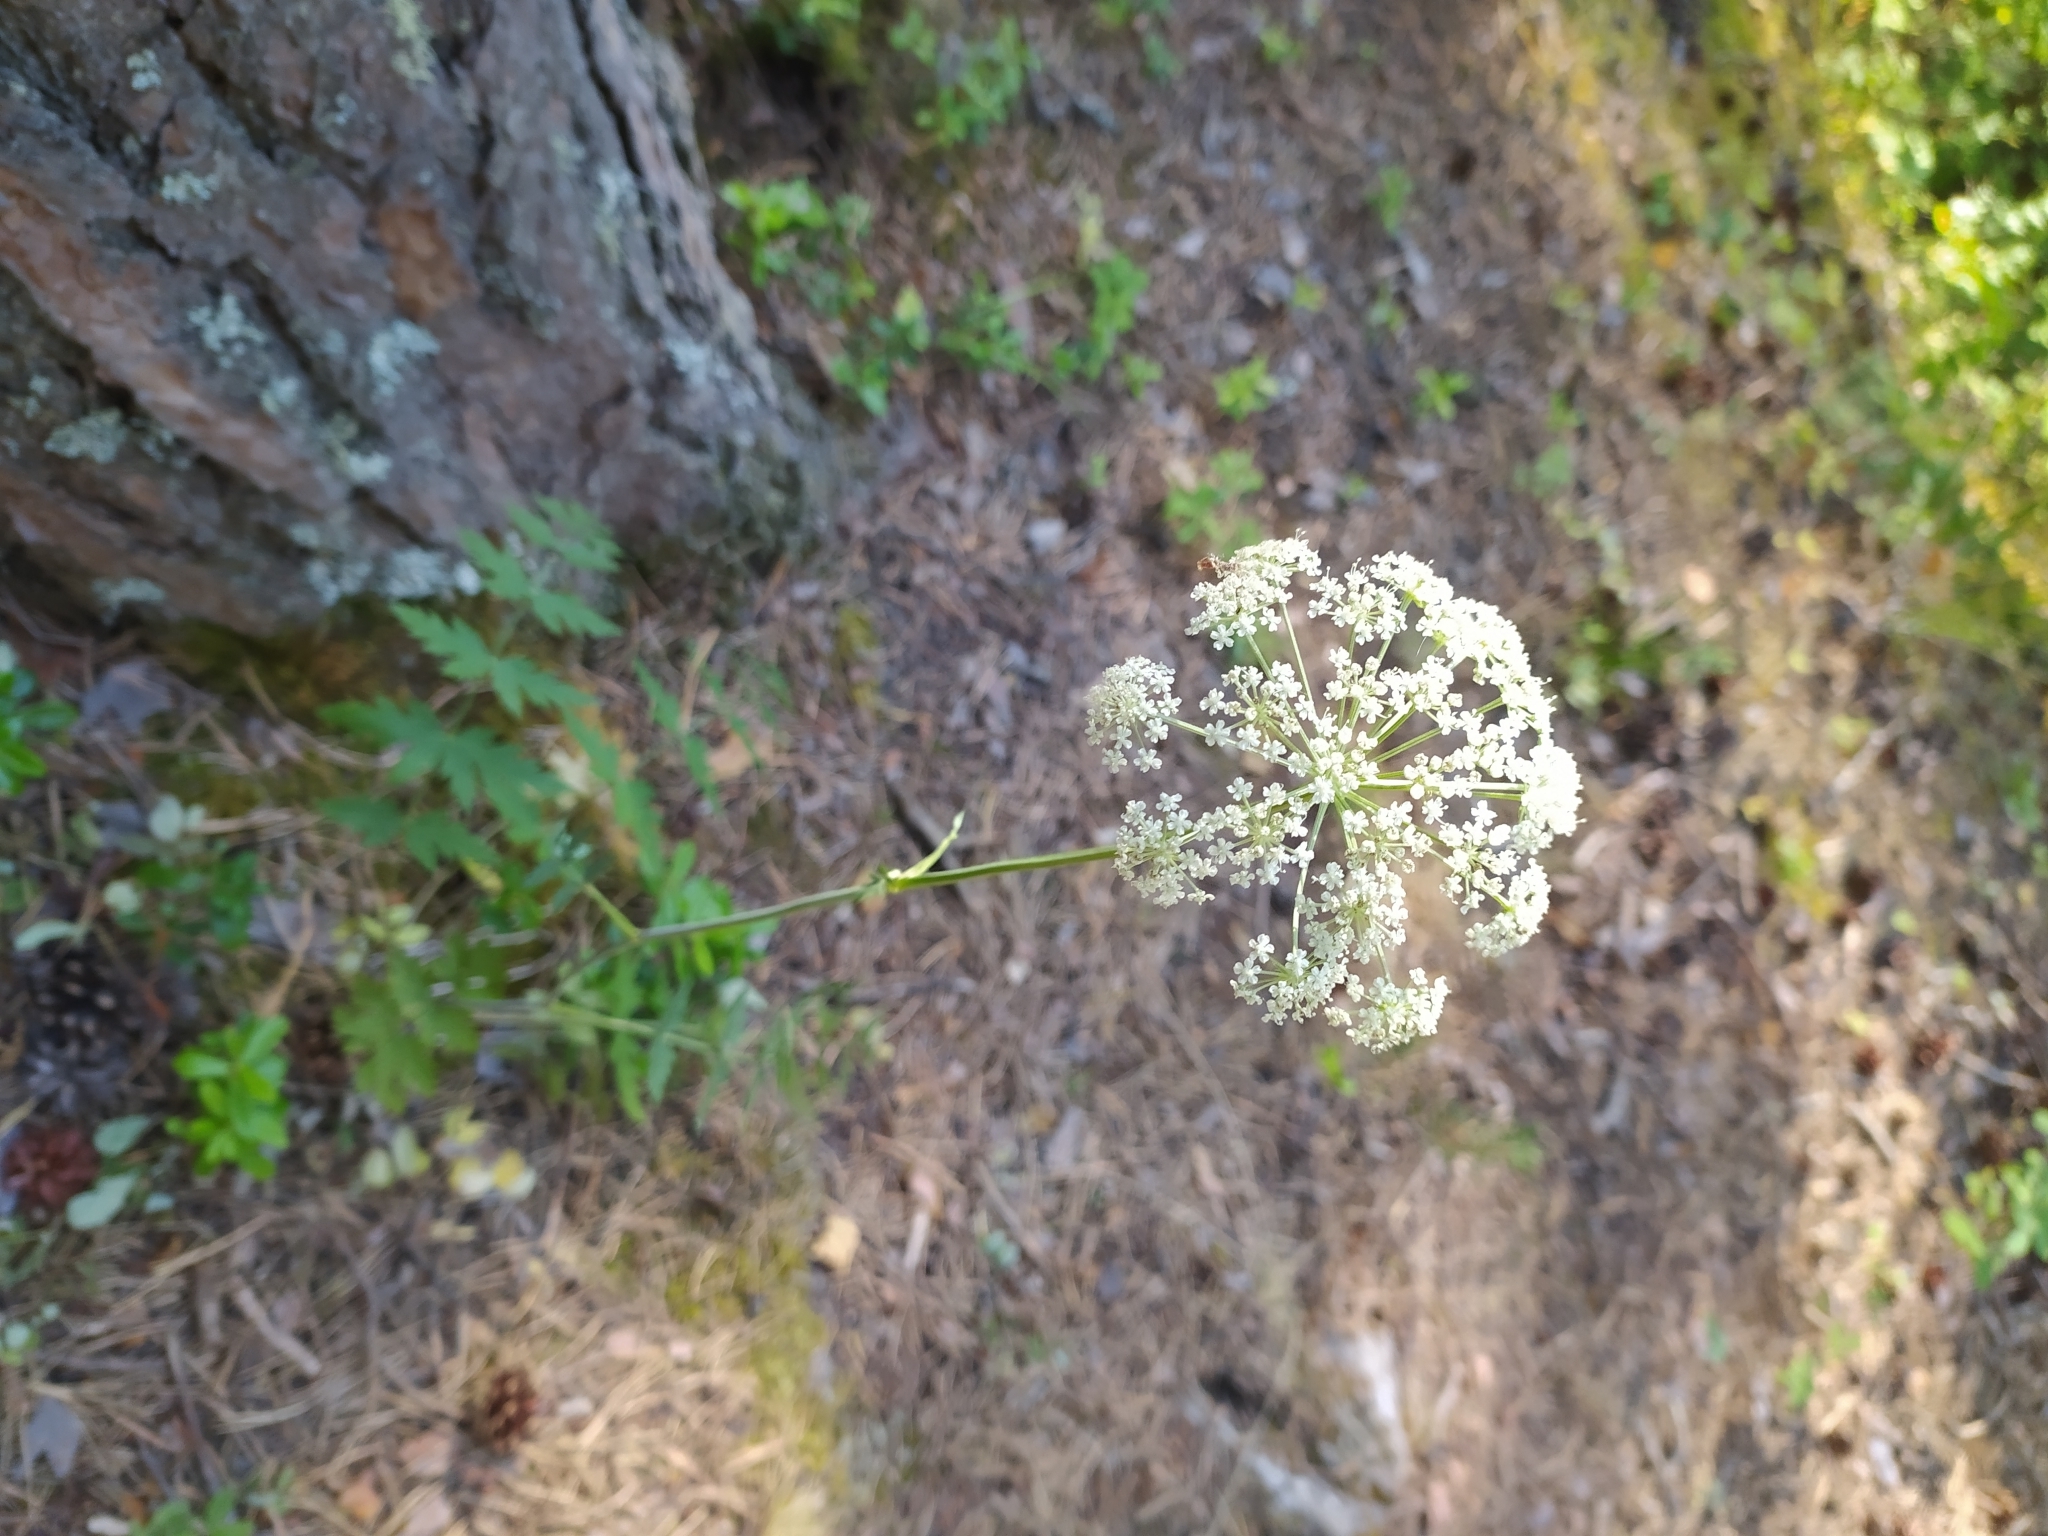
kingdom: Plantae
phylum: Tracheophyta
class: Magnoliopsida
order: Apiales
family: Apiaceae
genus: Seseli
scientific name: Seseli krylovii
